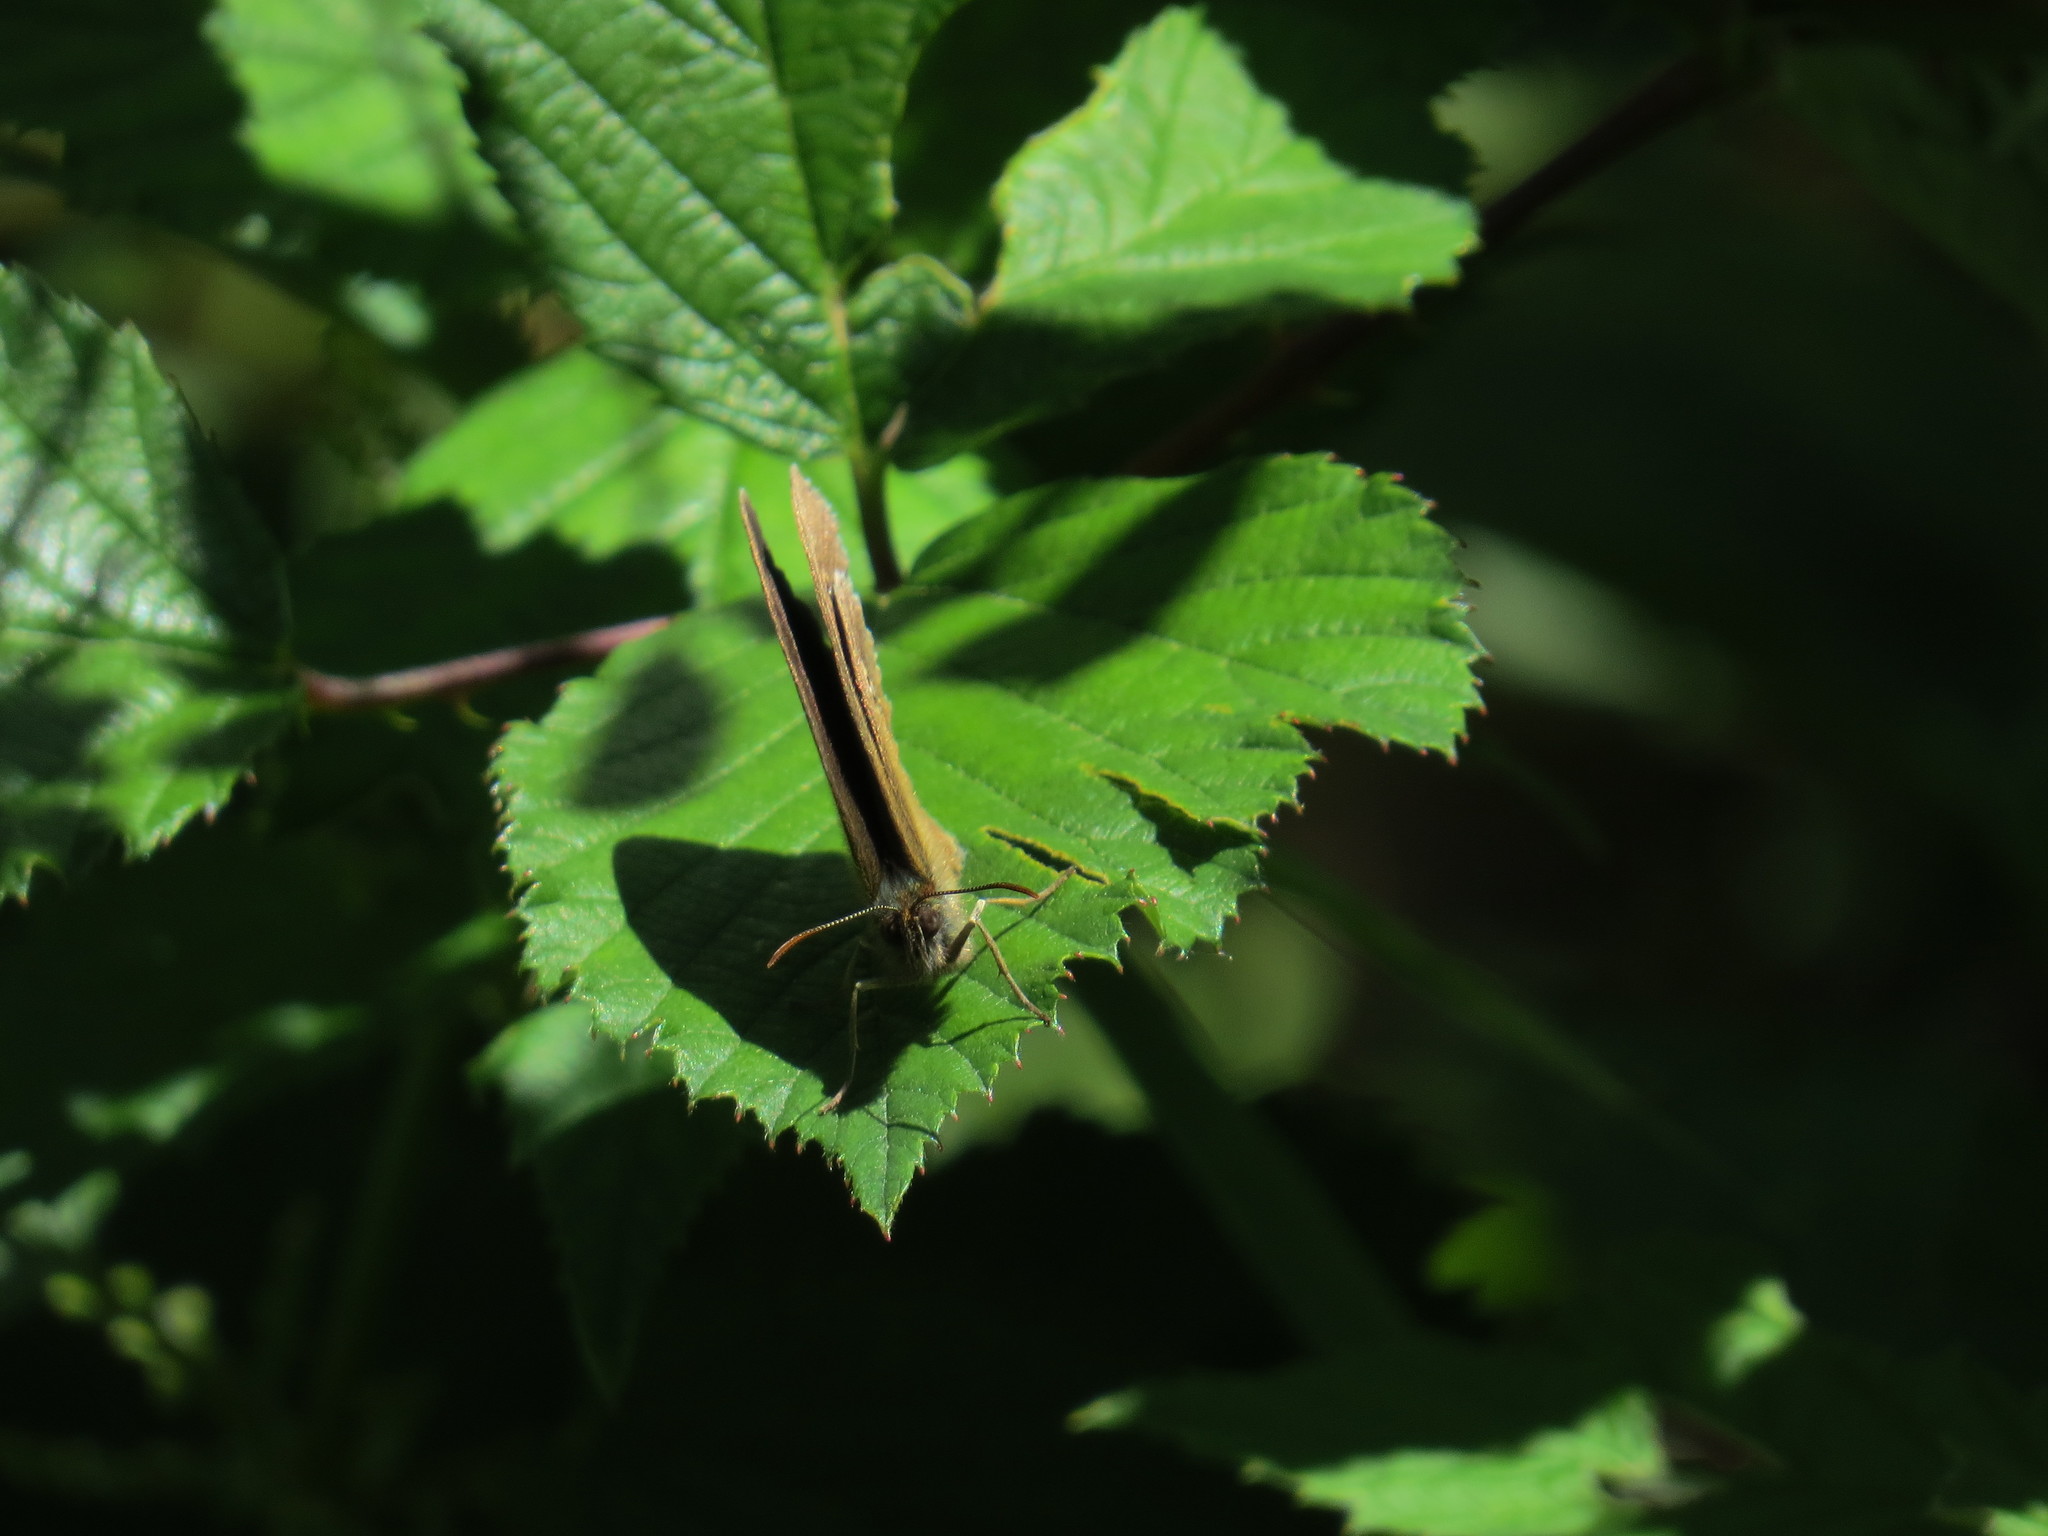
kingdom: Animalia
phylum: Arthropoda
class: Insecta
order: Lepidoptera
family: Nymphalidae
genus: Aphantopus
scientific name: Aphantopus hyperantus
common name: Ringlet
